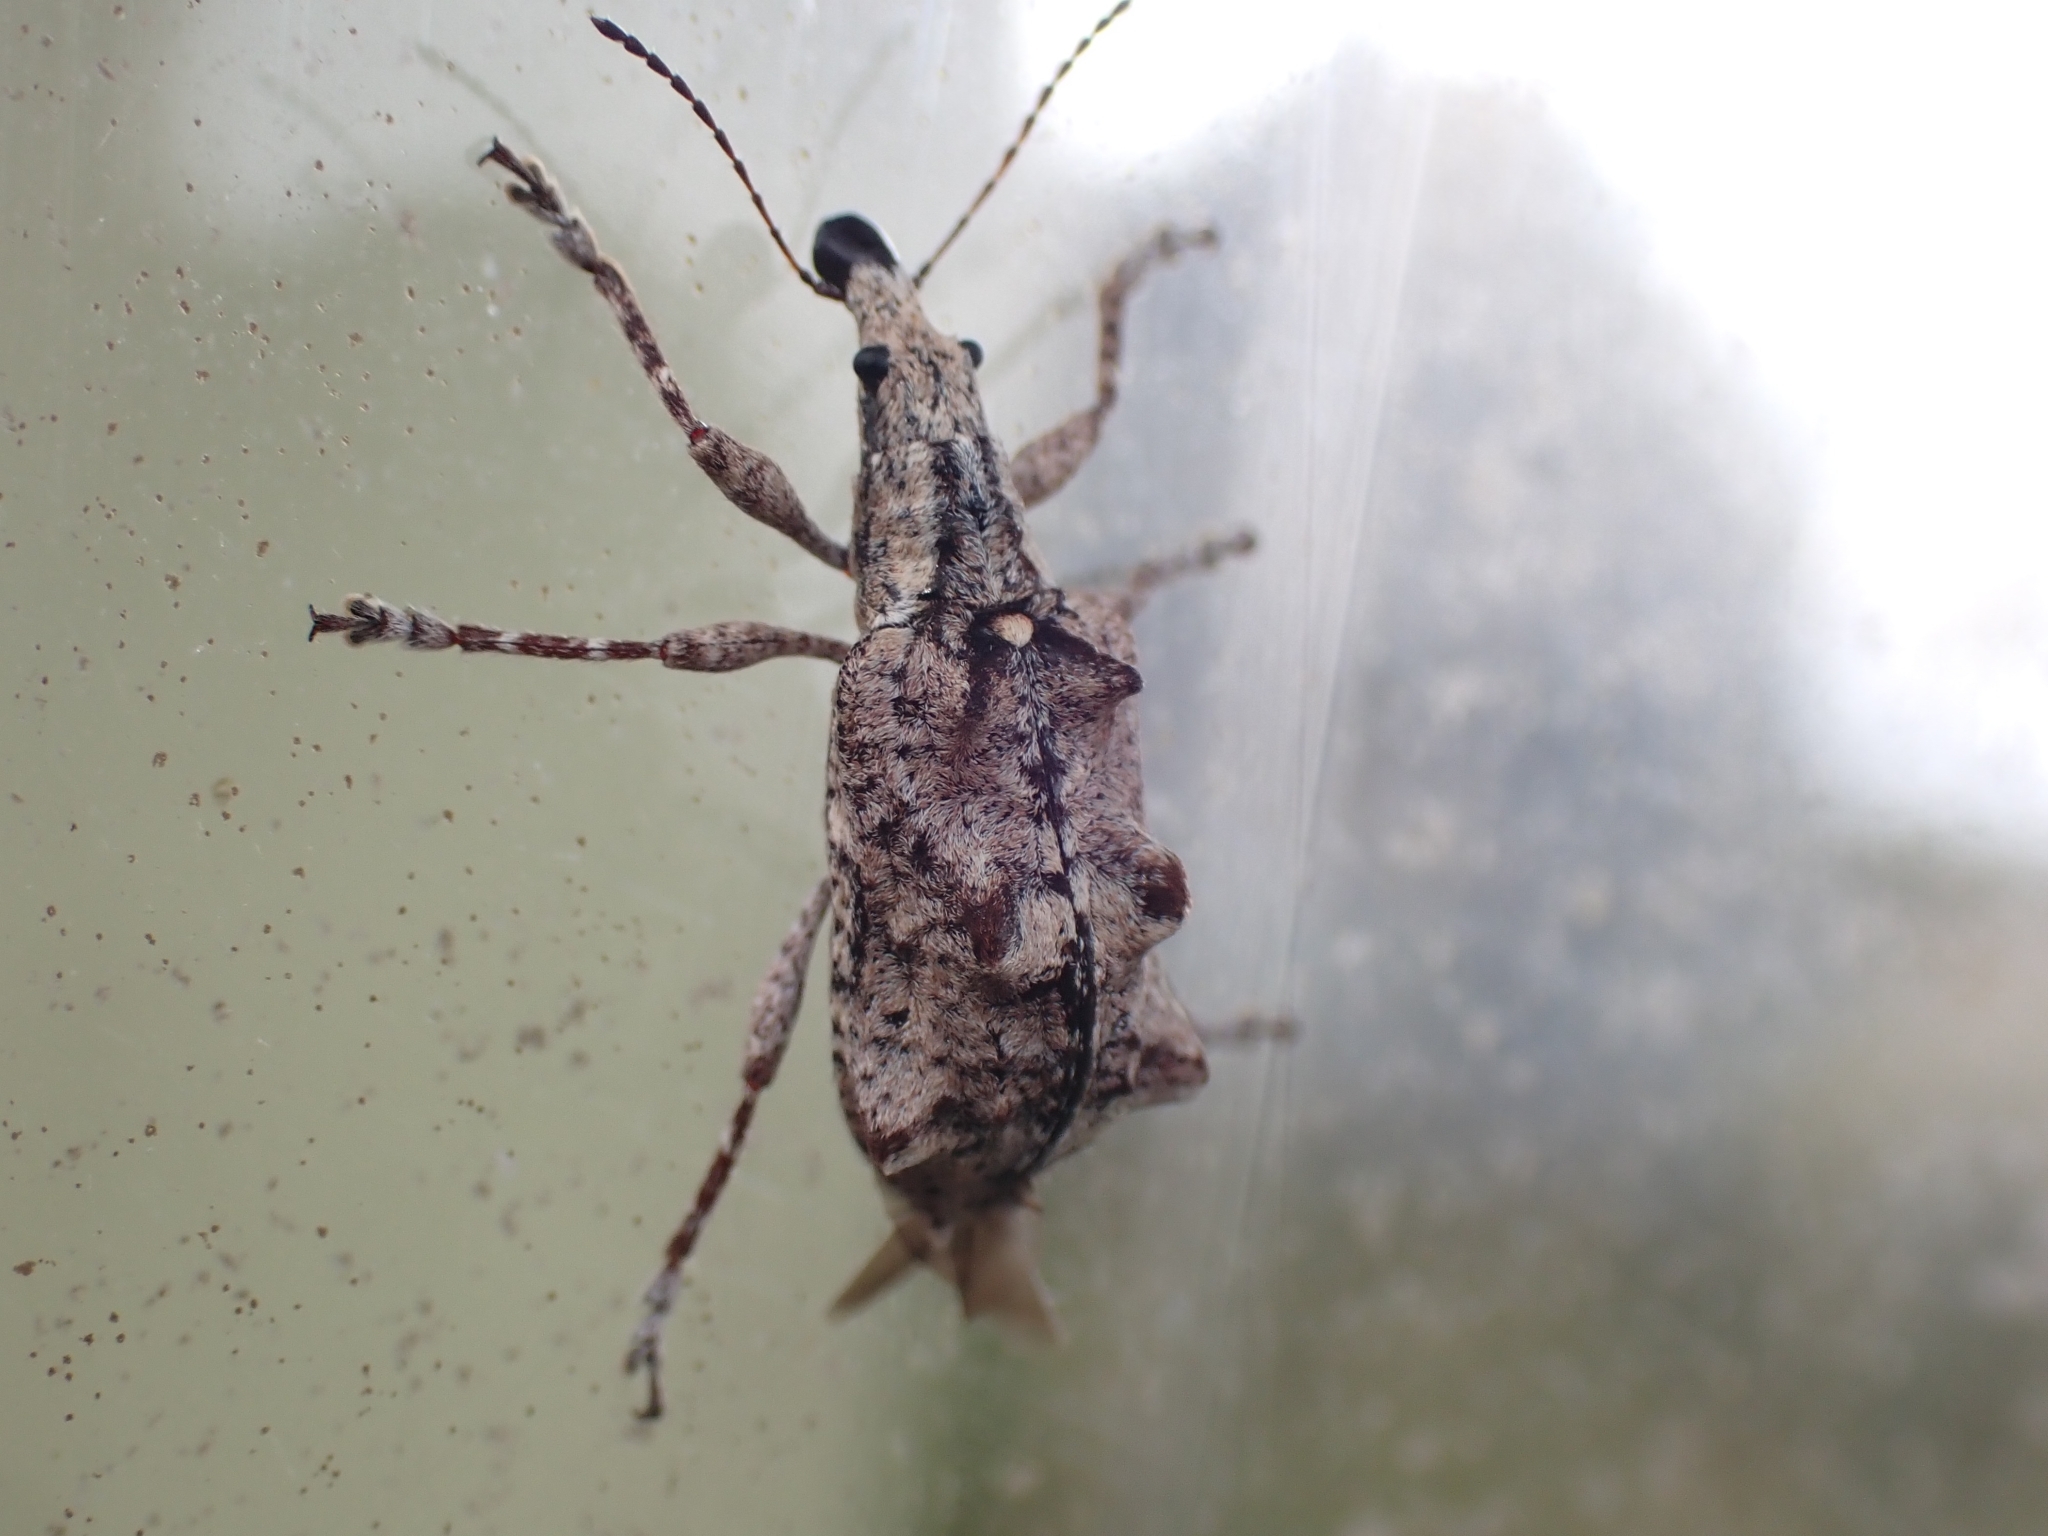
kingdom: Animalia
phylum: Arthropoda
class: Insecta
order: Coleoptera
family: Belidae
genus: Agathinus
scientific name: Agathinus tridens
